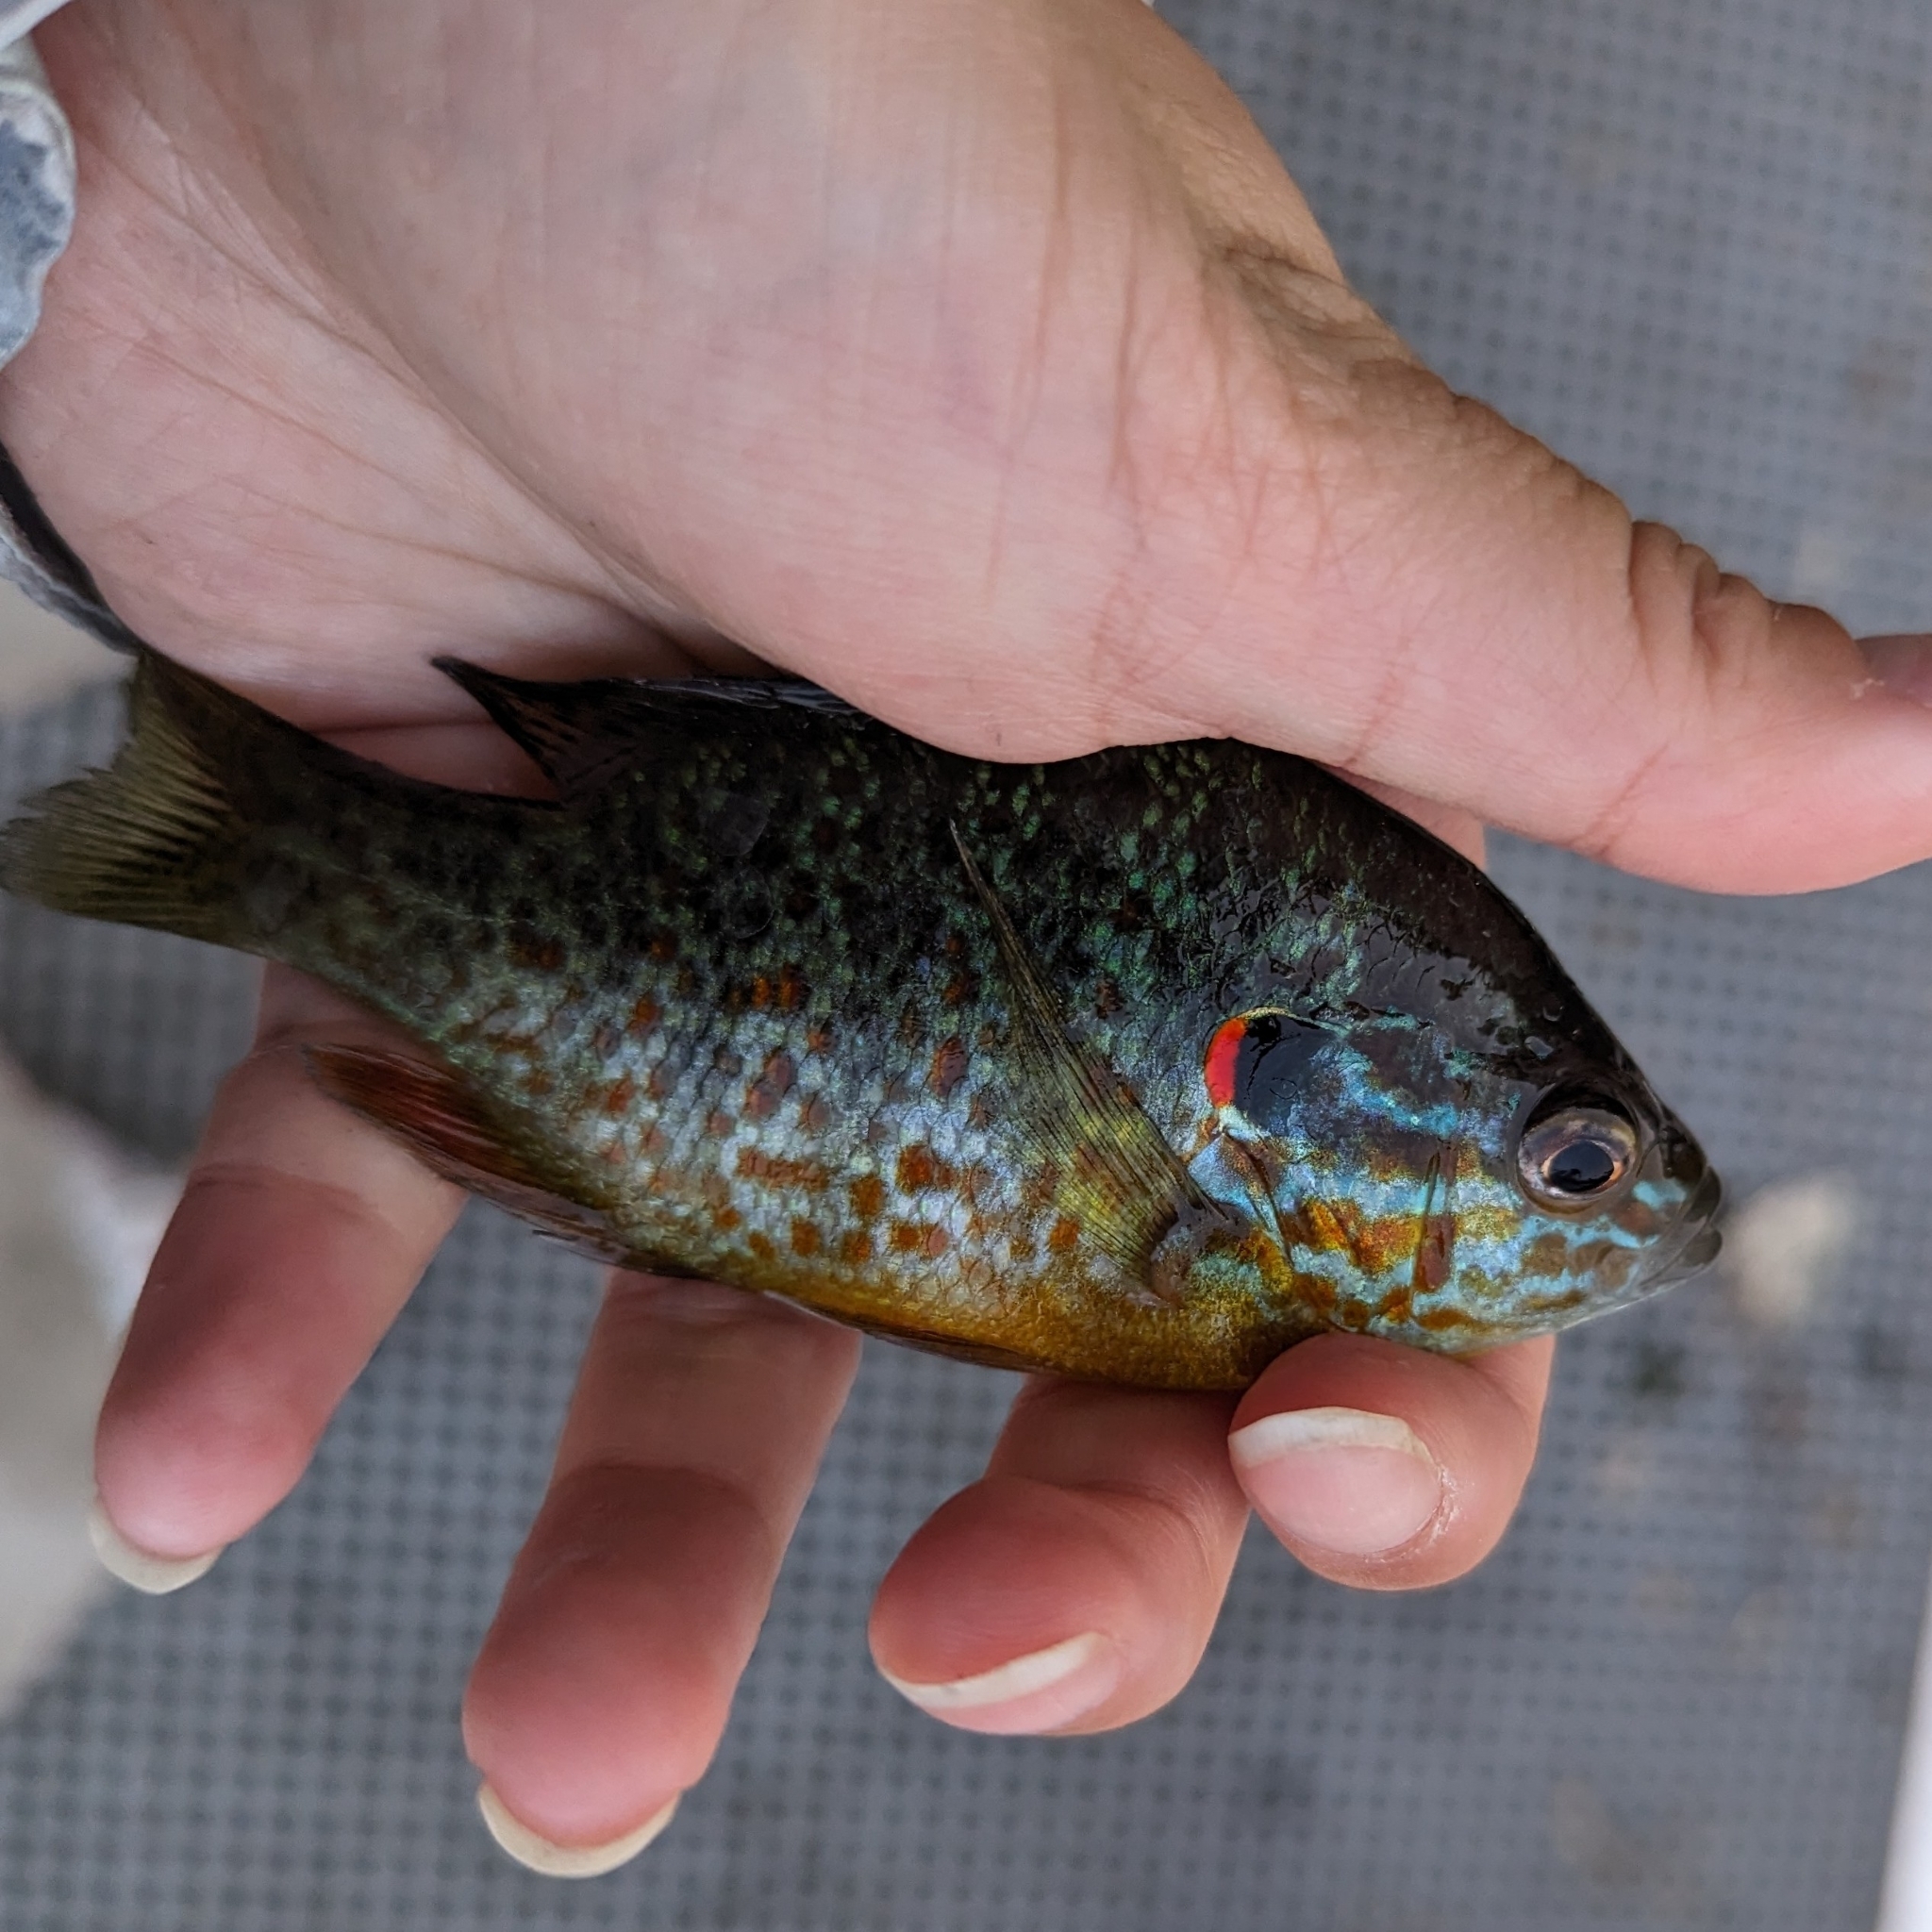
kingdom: Animalia
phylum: Chordata
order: Perciformes
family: Centrarchidae
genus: Lepomis
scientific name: Lepomis gibbosus
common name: Pumpkinseed
